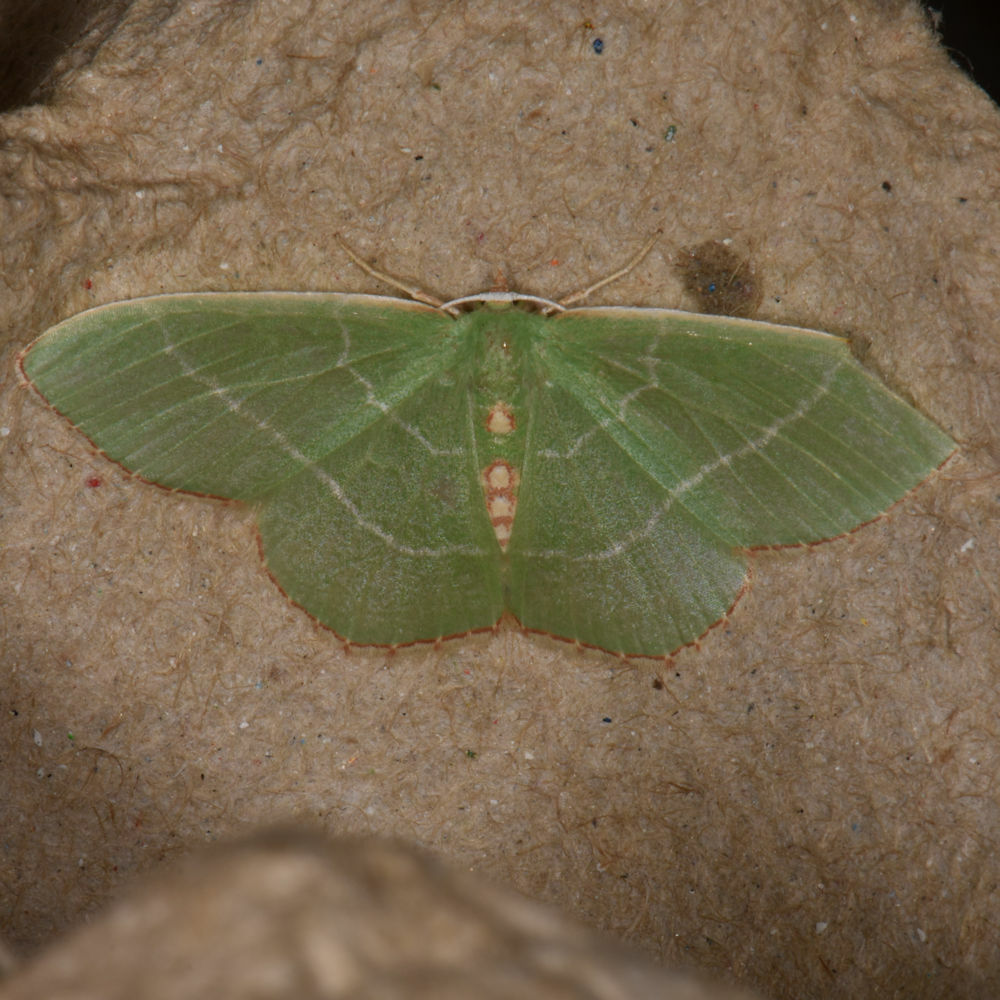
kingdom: Animalia
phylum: Arthropoda
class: Insecta
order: Lepidoptera
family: Geometridae
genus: Nemoria
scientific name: Nemoria bistriaria
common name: Red-fringed emerald
